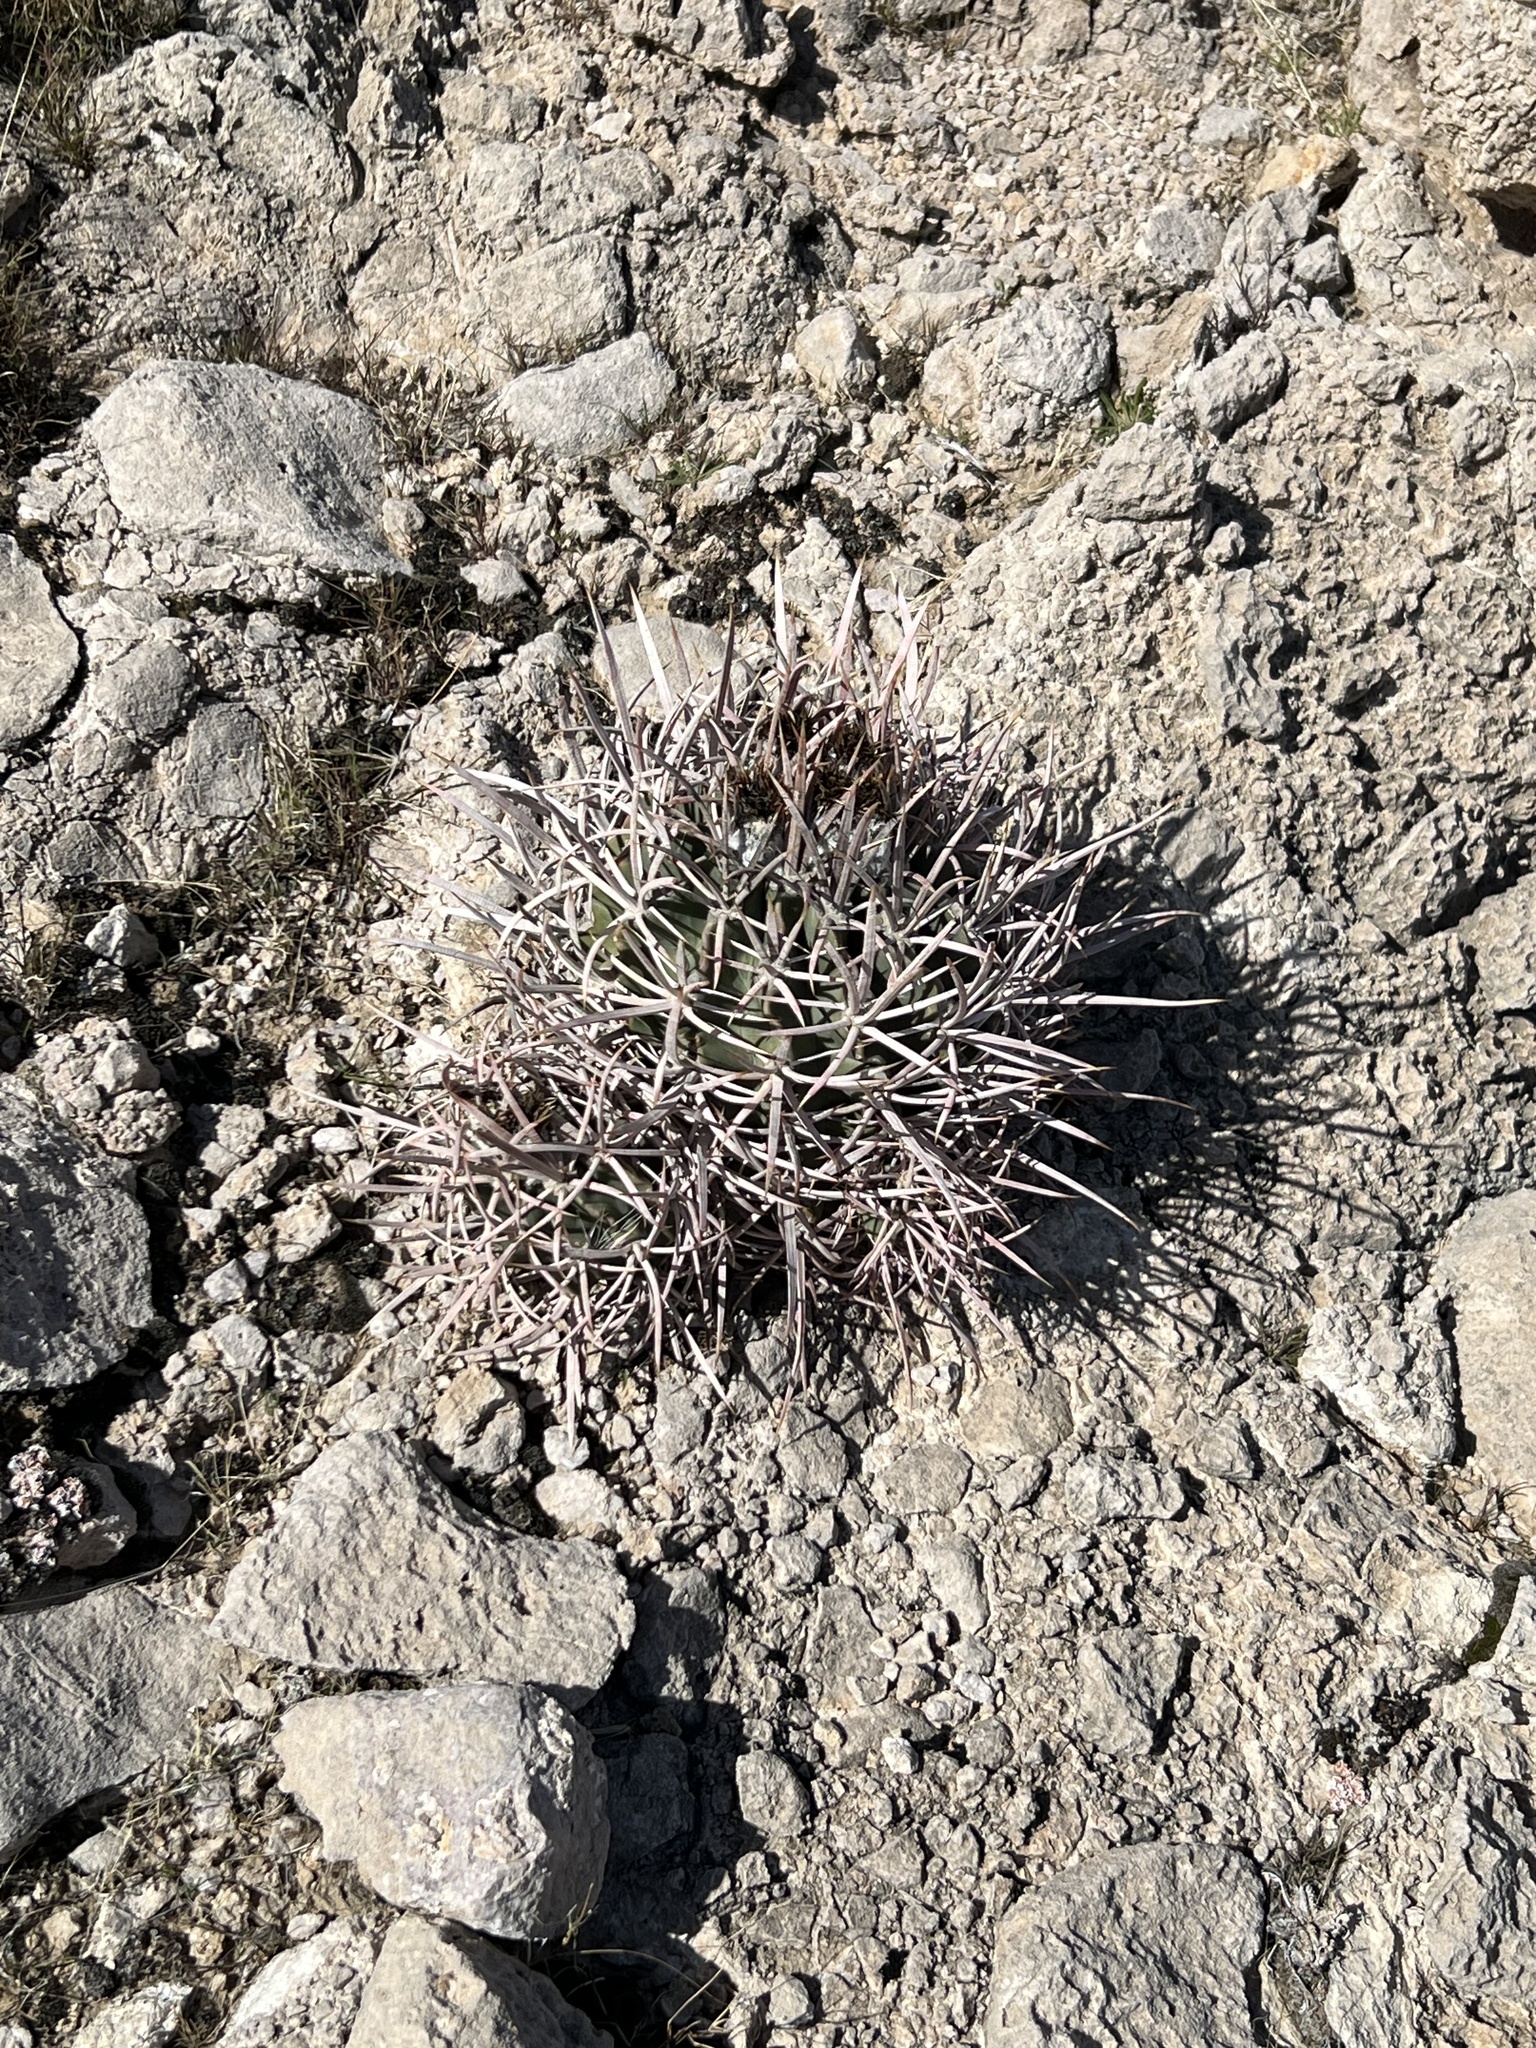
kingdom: Plantae
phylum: Tracheophyta
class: Magnoliopsida
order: Caryophyllales
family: Cactaceae
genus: Echinocactus
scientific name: Echinocactus polycephalus
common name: Cottontop cactus
